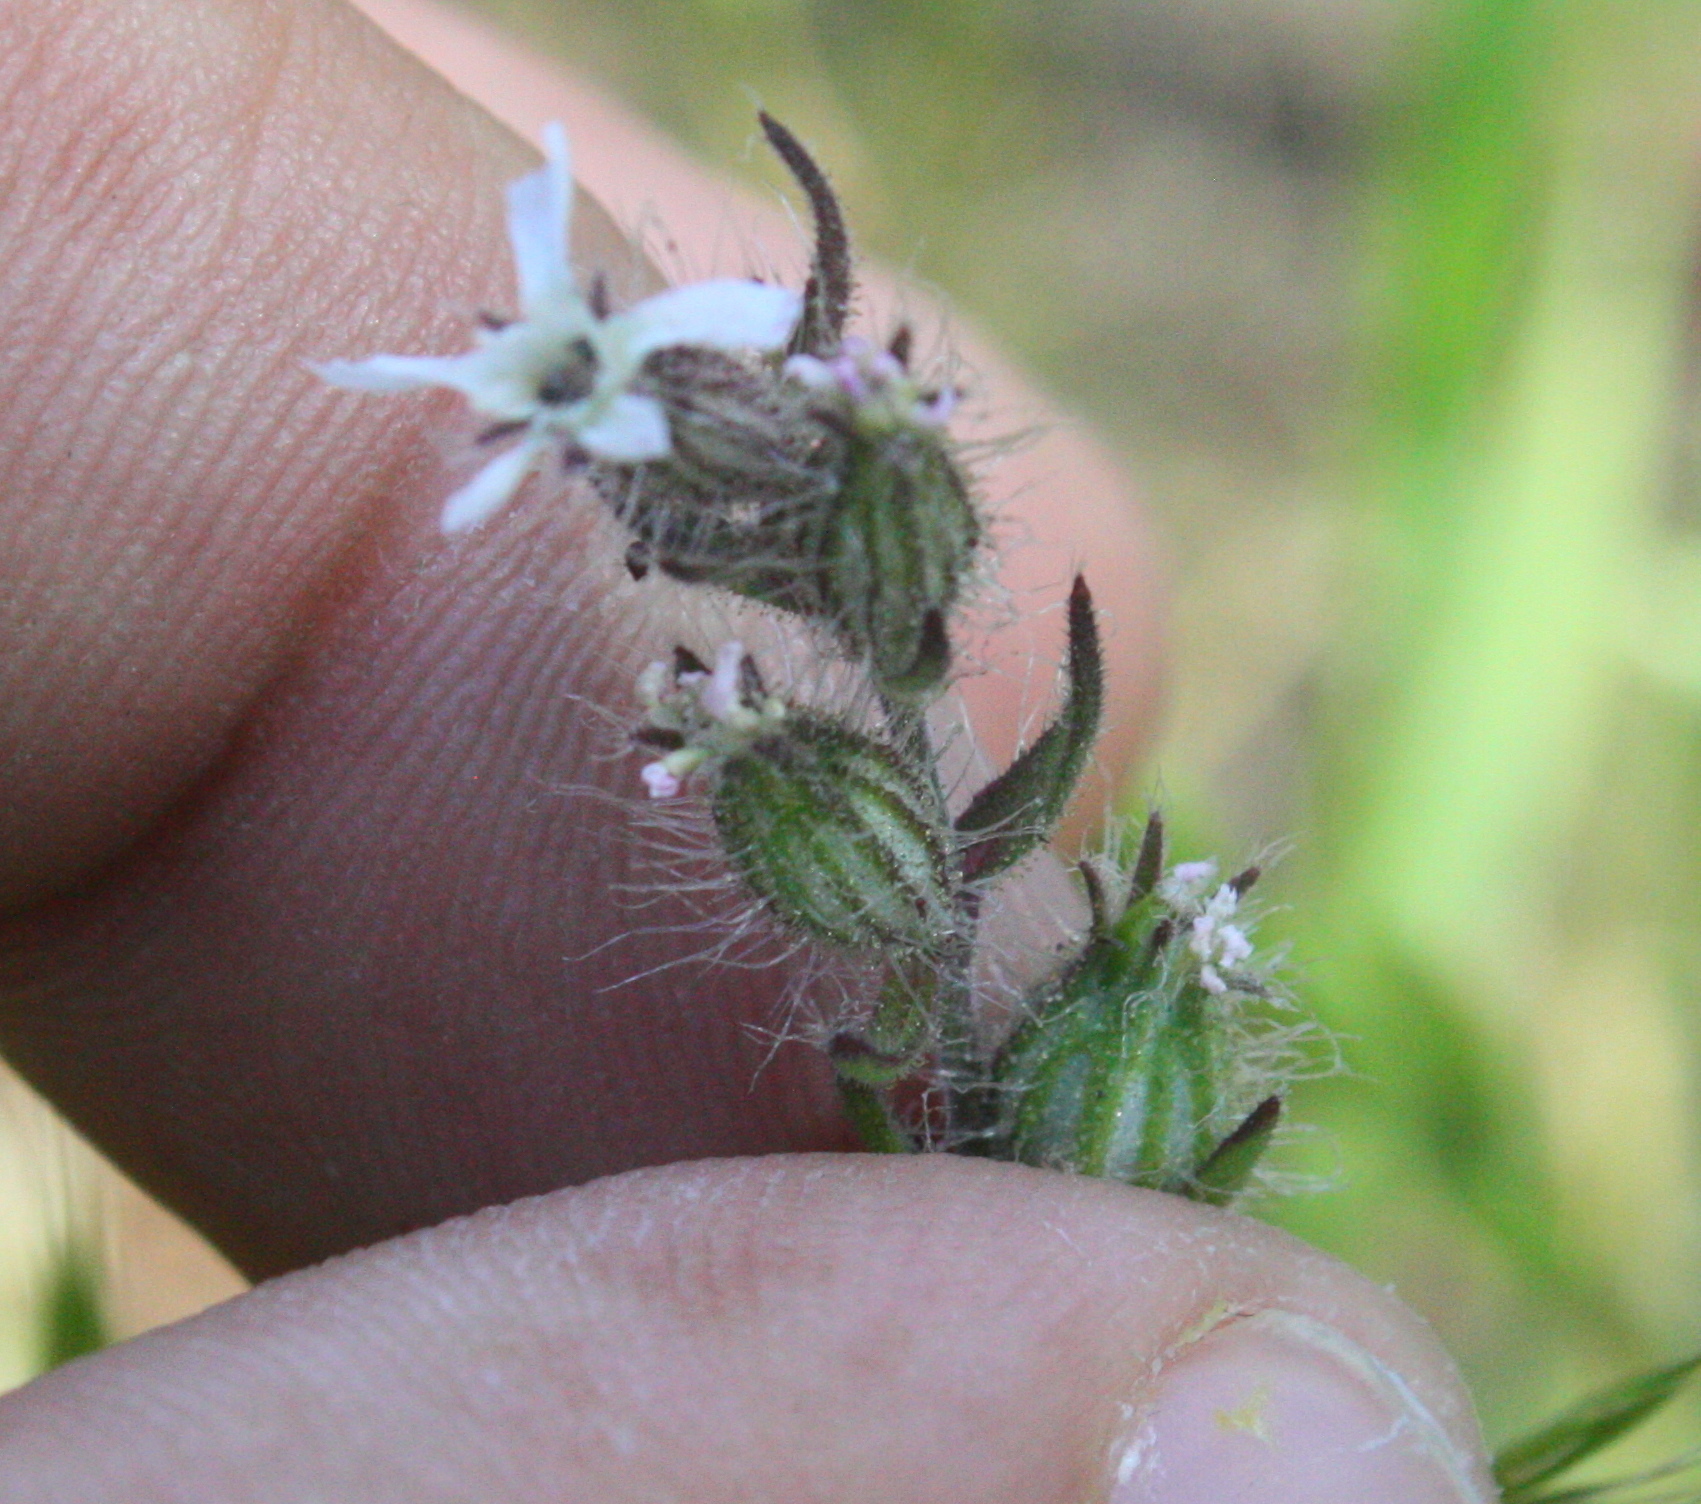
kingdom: Plantae
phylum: Tracheophyta
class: Magnoliopsida
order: Caryophyllales
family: Caryophyllaceae
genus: Silene
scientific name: Silene gallica
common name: Small-flowered catchfly
